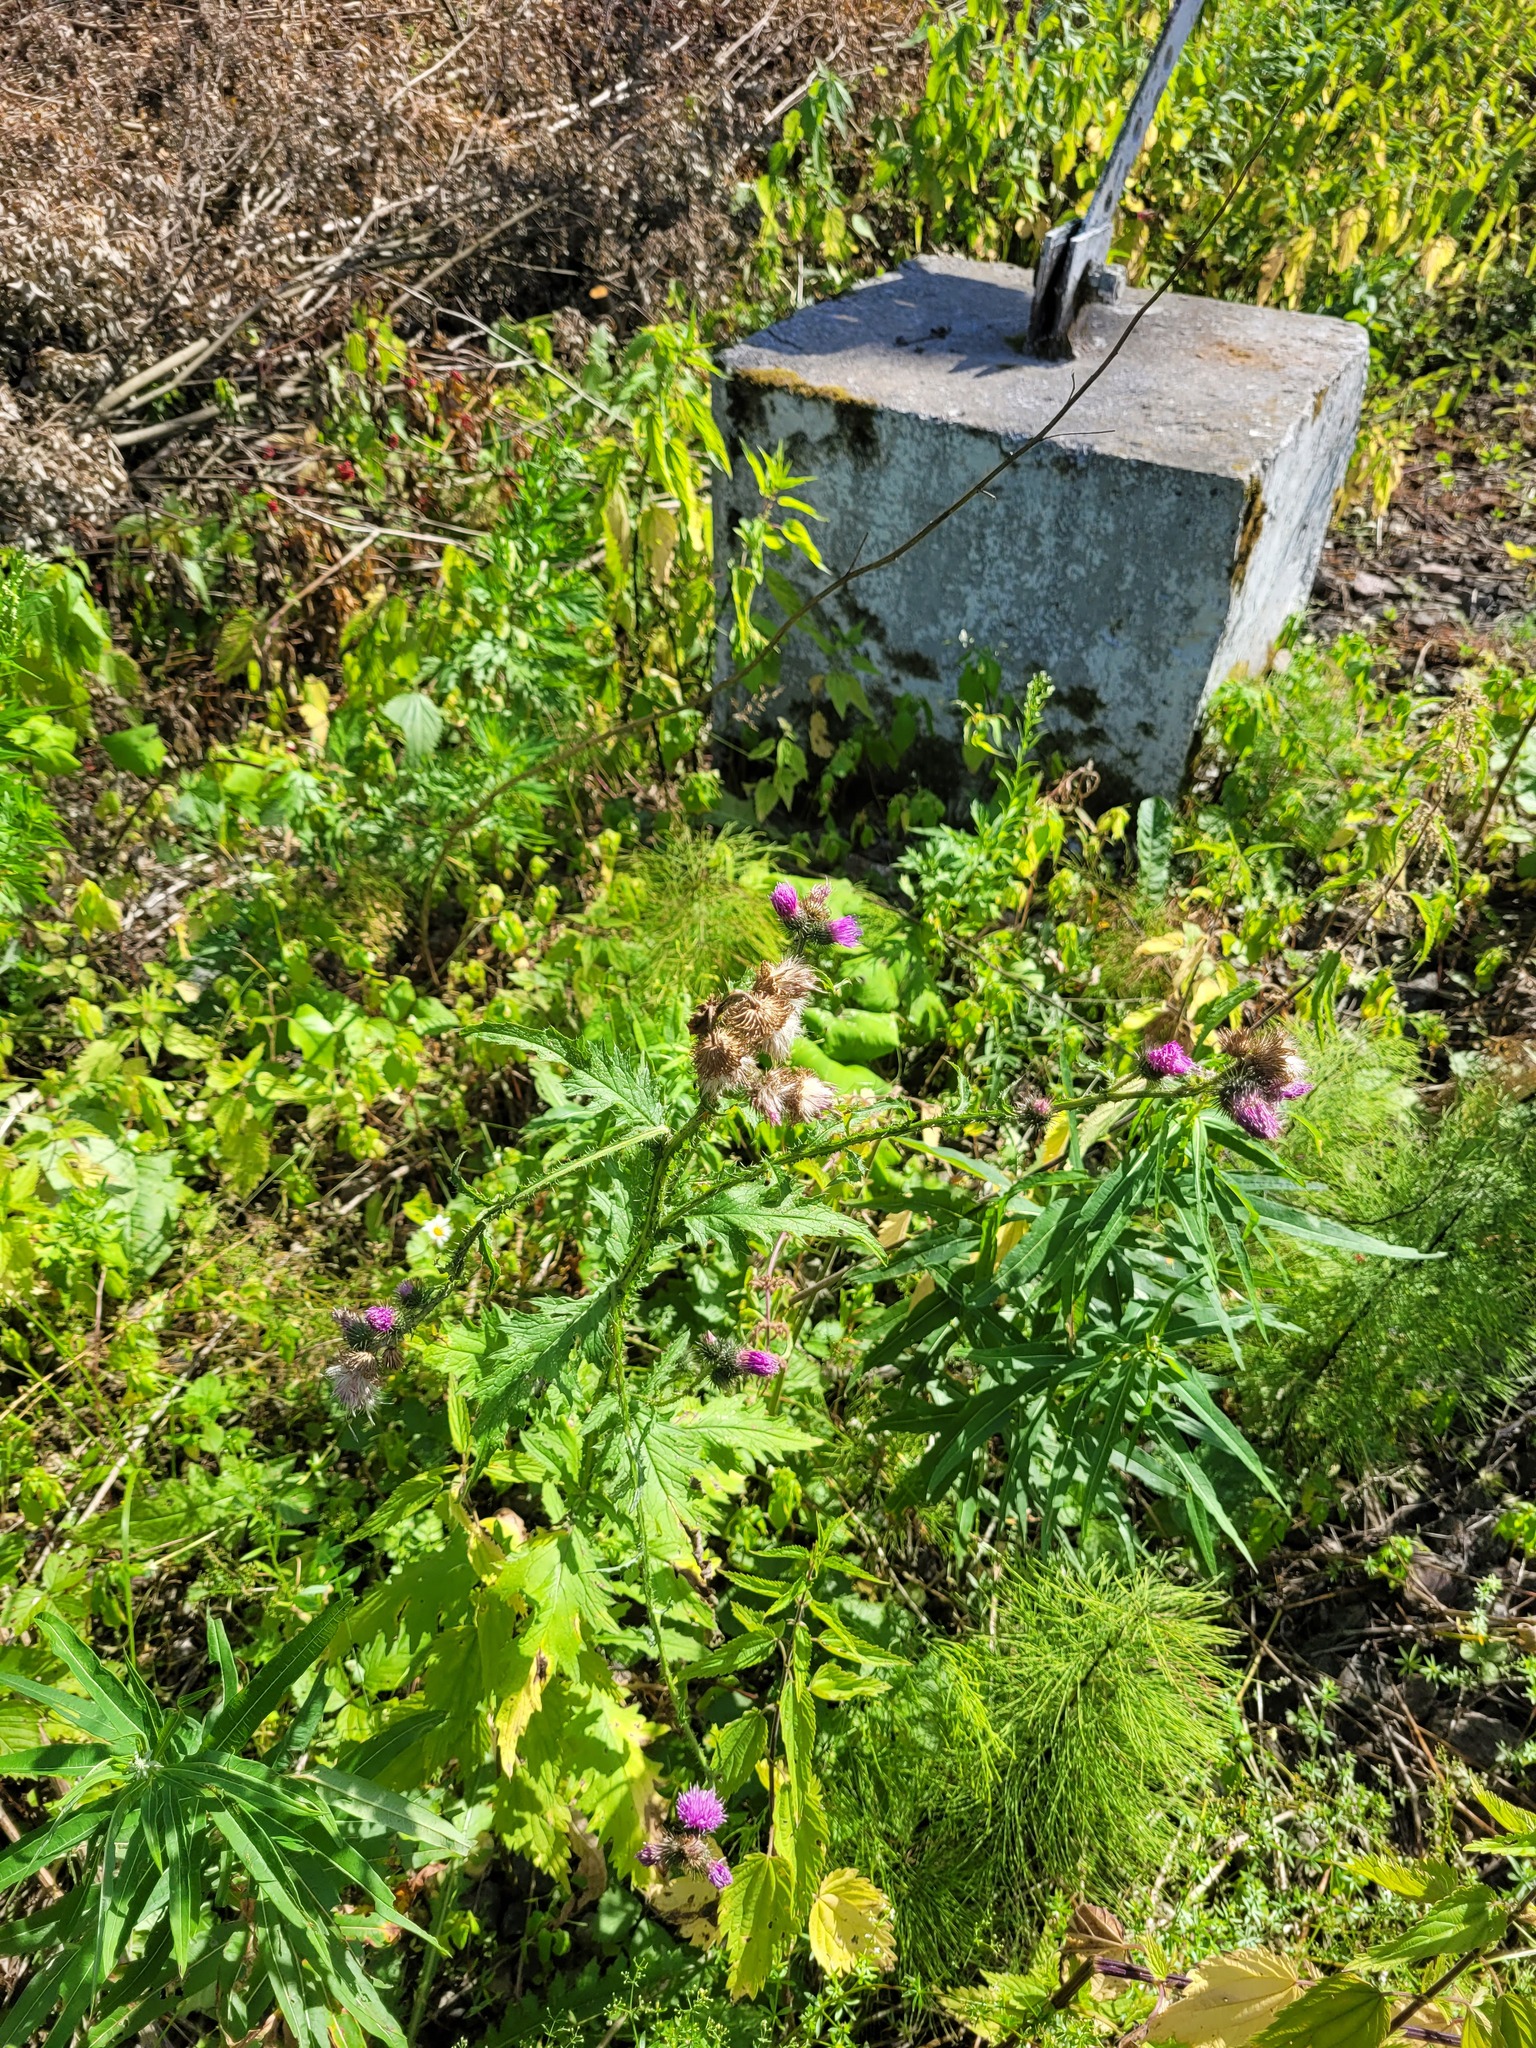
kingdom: Plantae
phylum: Tracheophyta
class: Magnoliopsida
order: Asterales
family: Asteraceae
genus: Carduus
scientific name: Carduus crispus
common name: Welted thistle
